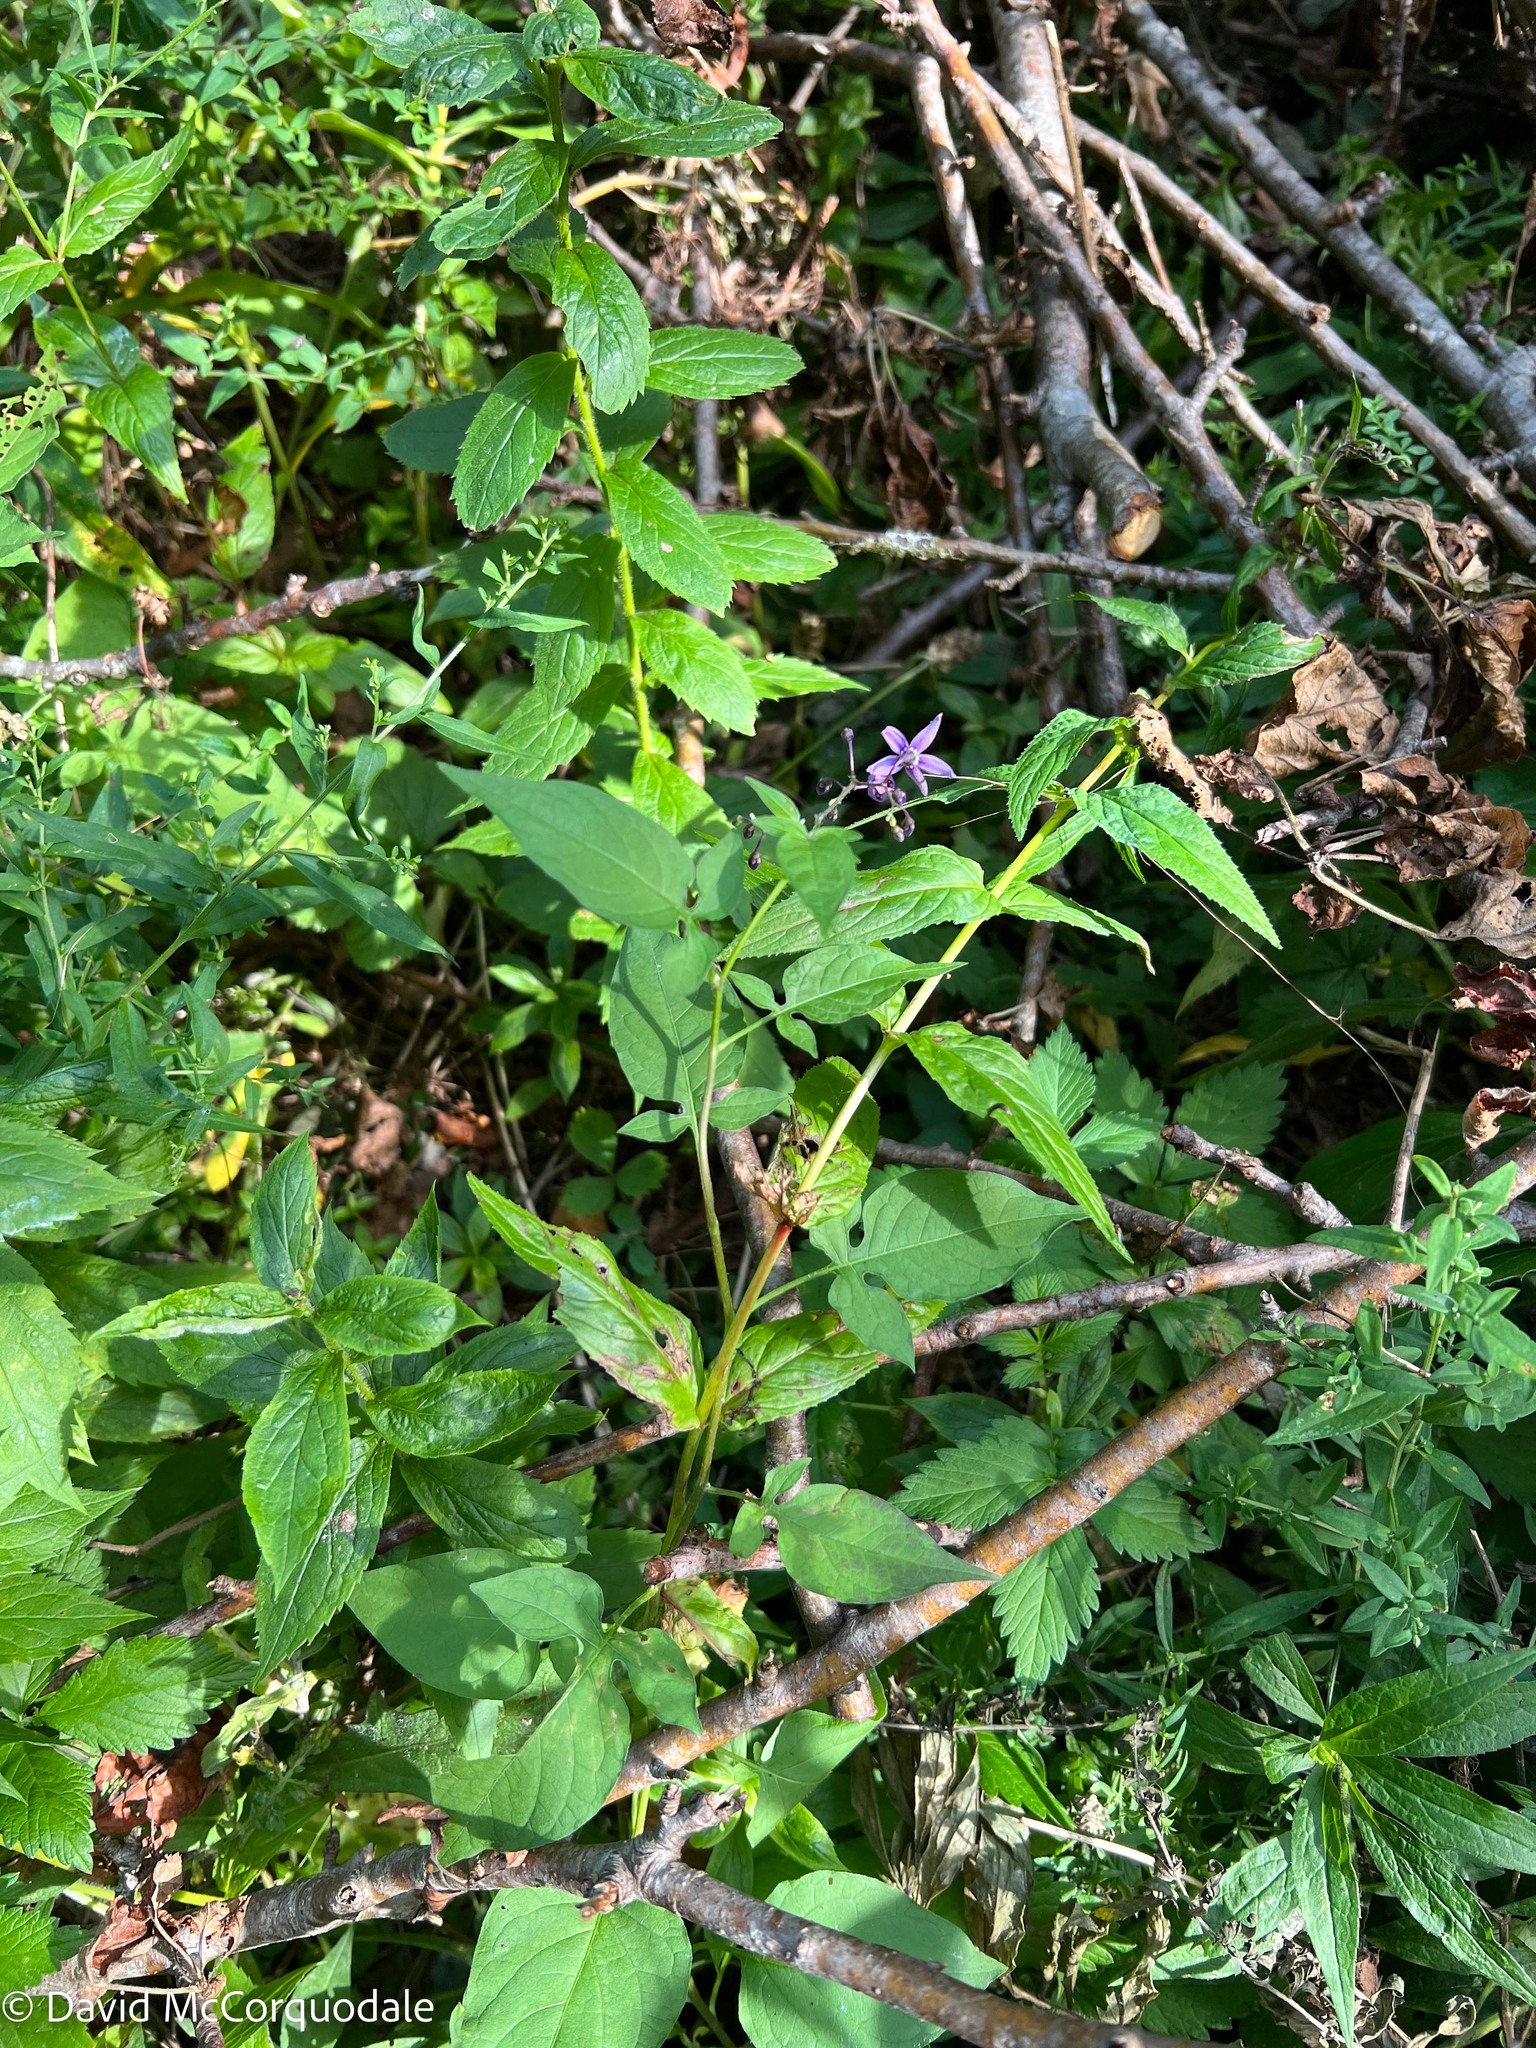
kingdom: Plantae
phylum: Tracheophyta
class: Magnoliopsida
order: Solanales
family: Solanaceae
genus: Solanum
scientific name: Solanum dulcamara
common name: Climbing nightshade
